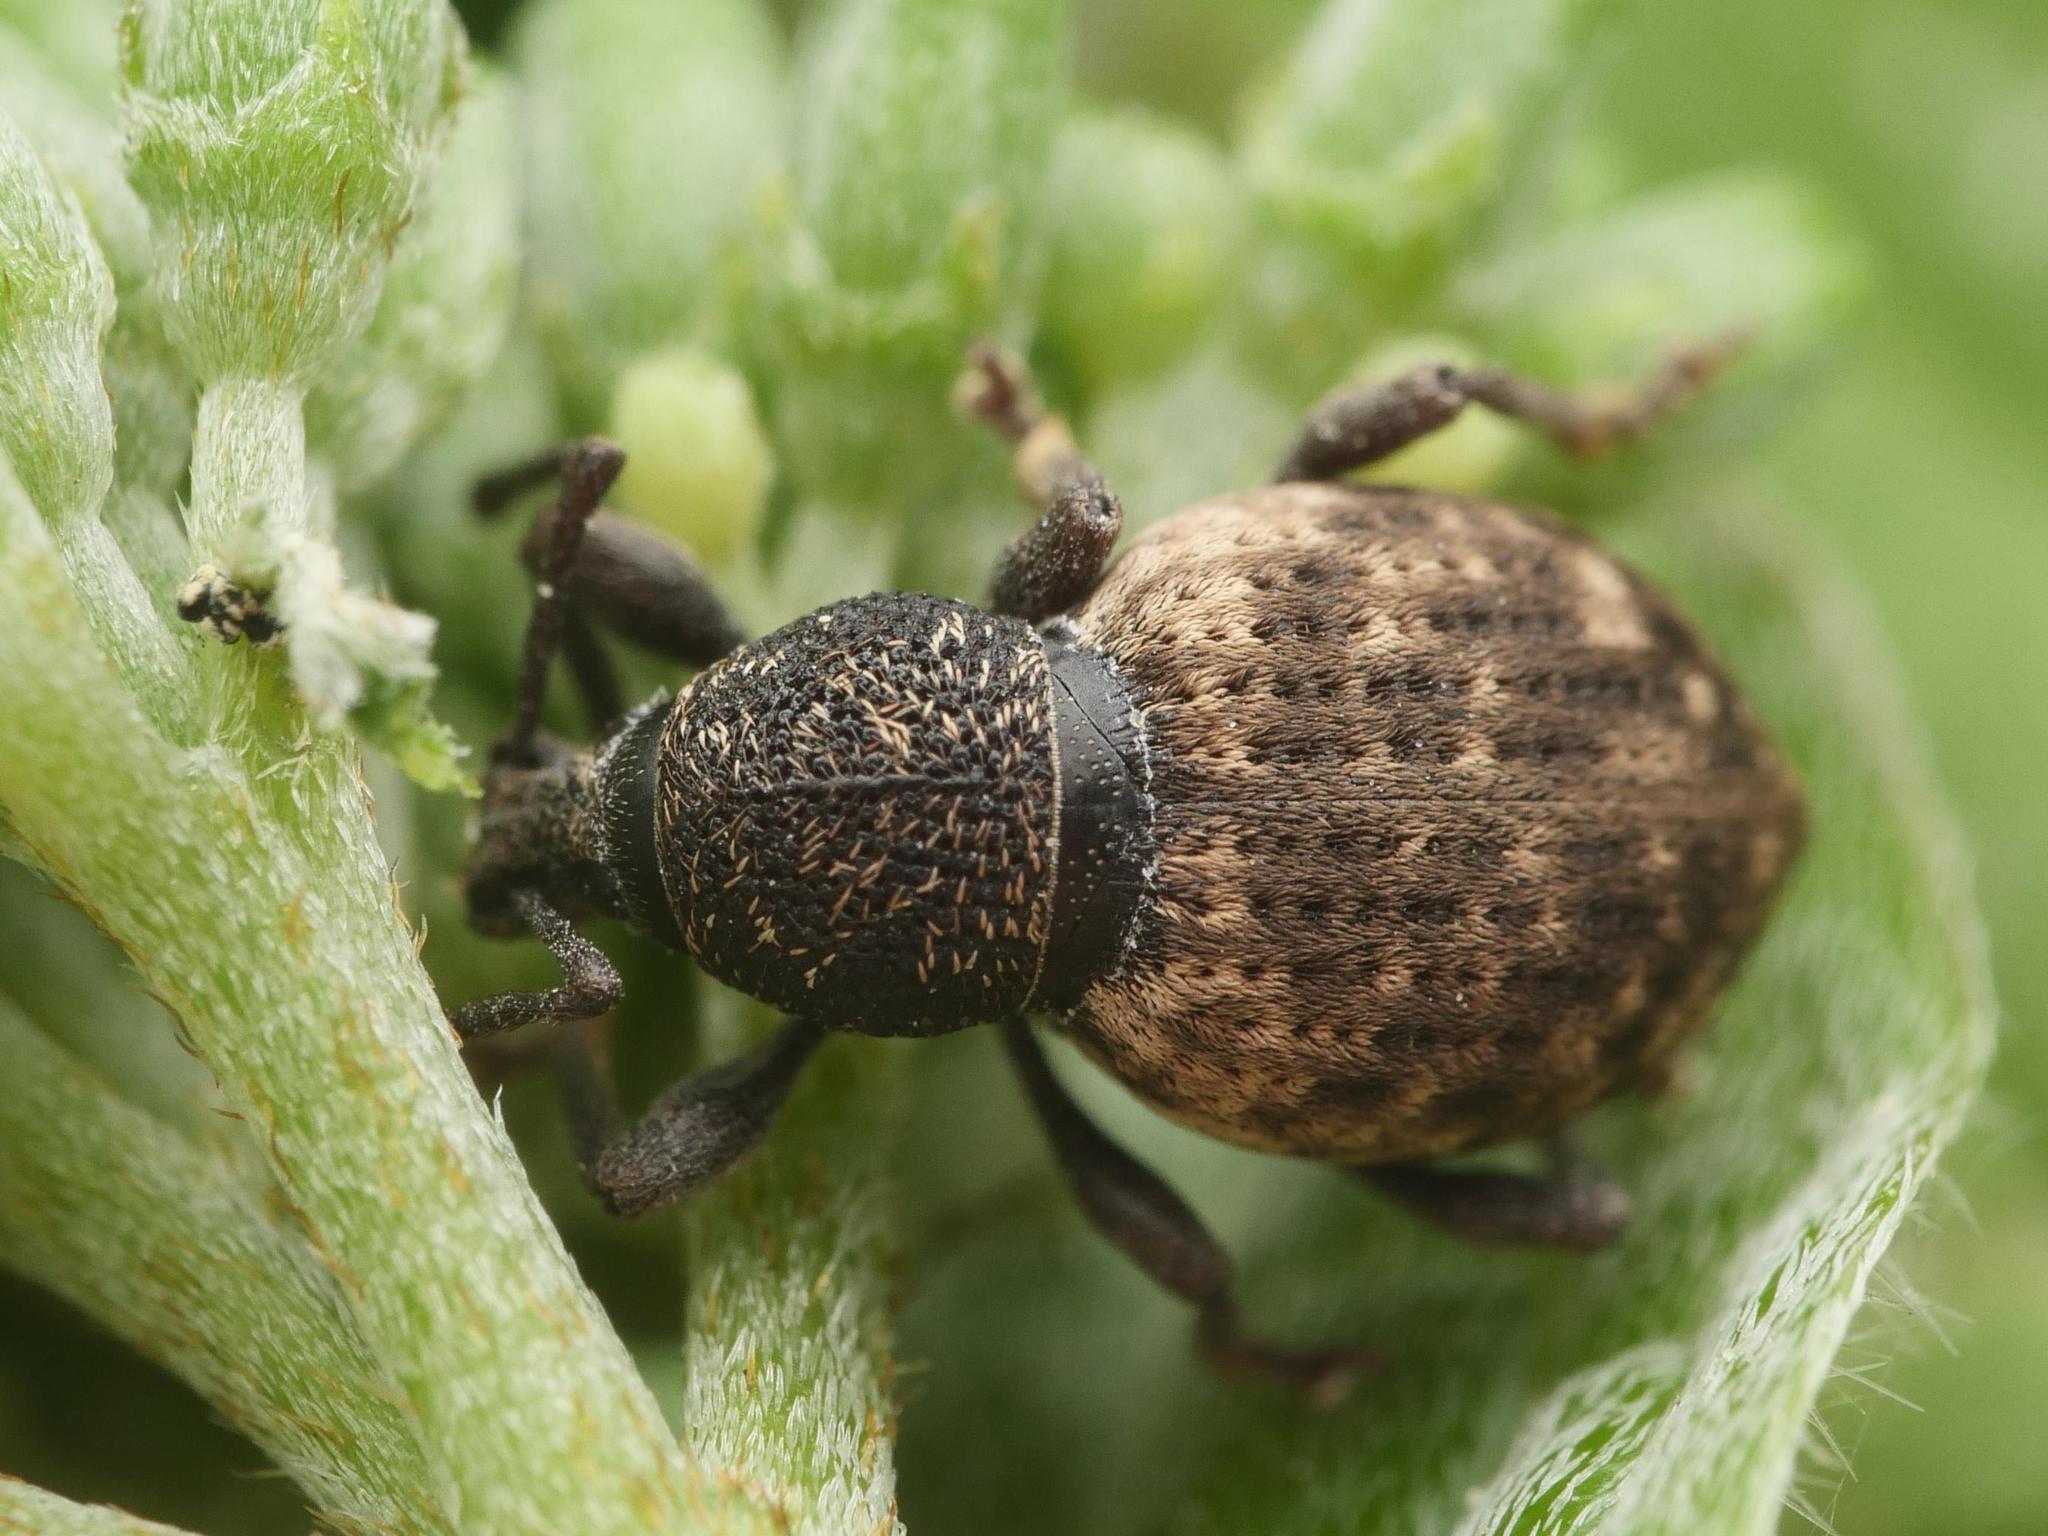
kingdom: Animalia
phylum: Arthropoda
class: Insecta
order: Coleoptera
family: Curculionidae
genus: Otiorhynchus
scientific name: Otiorhynchus raucus
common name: Weevil
